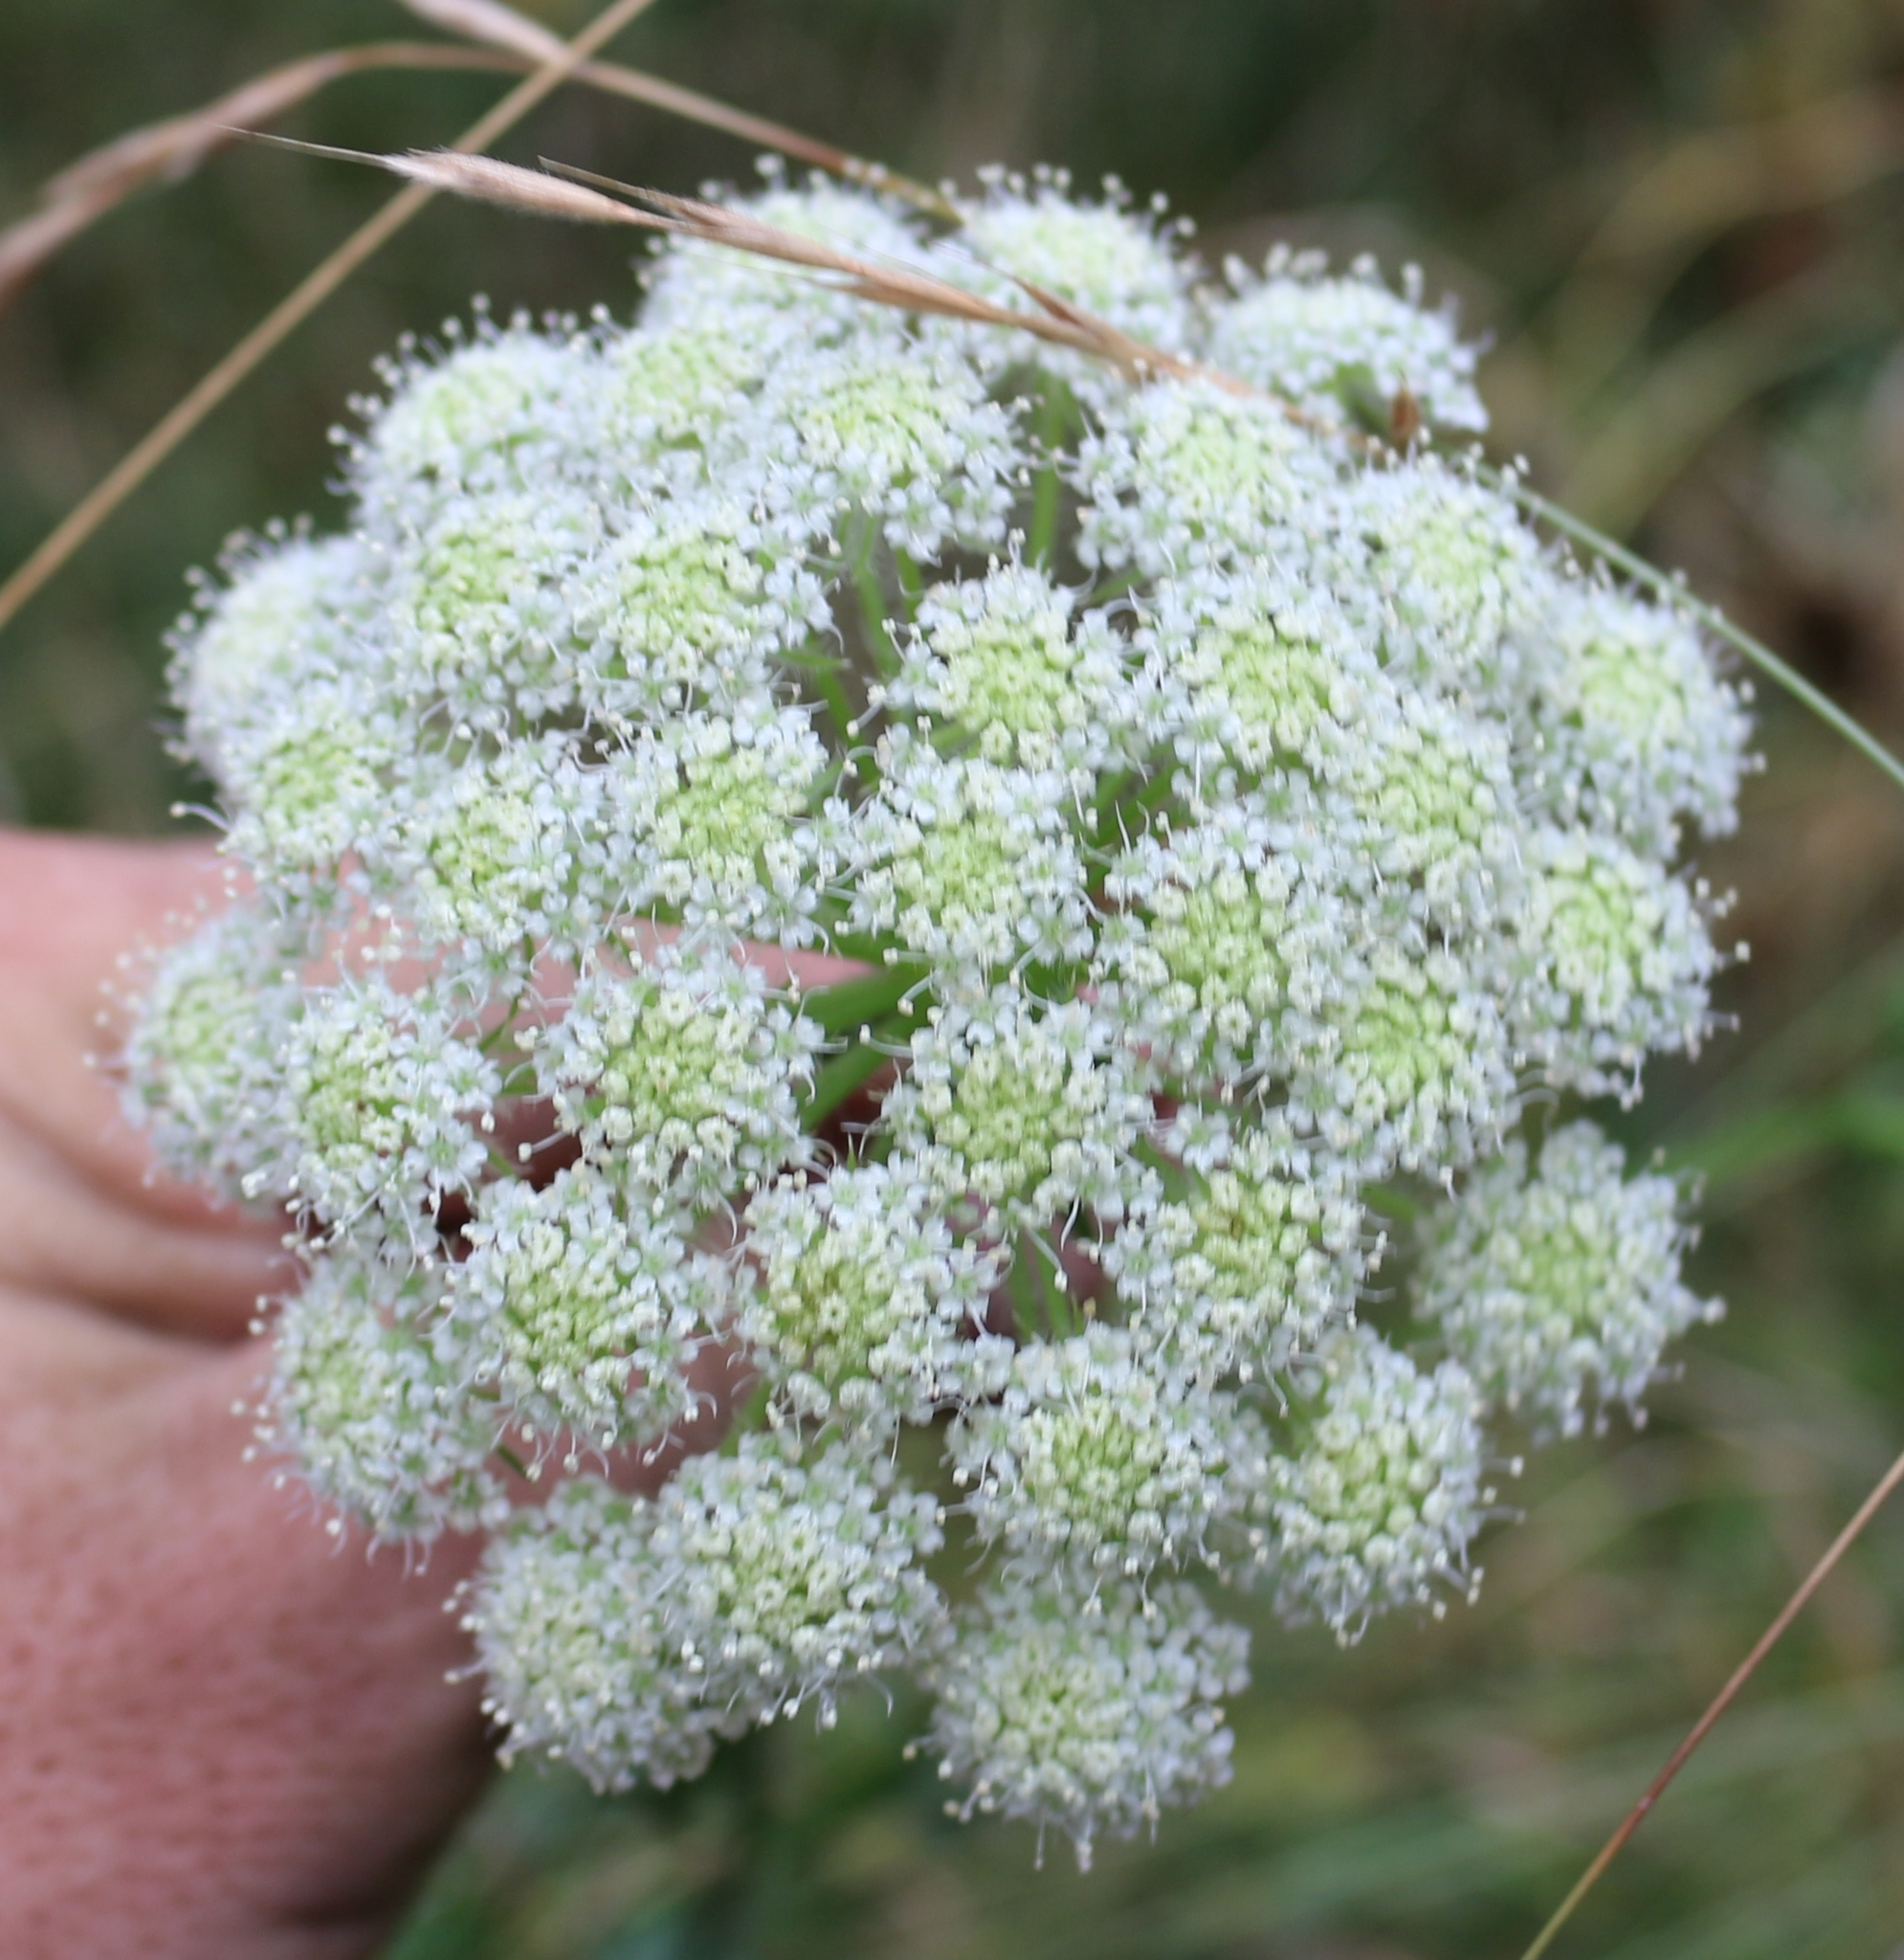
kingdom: Plantae
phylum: Tracheophyta
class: Magnoliopsida
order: Apiales
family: Apiaceae
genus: Silphiodaucus
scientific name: Silphiodaucus hispidus
